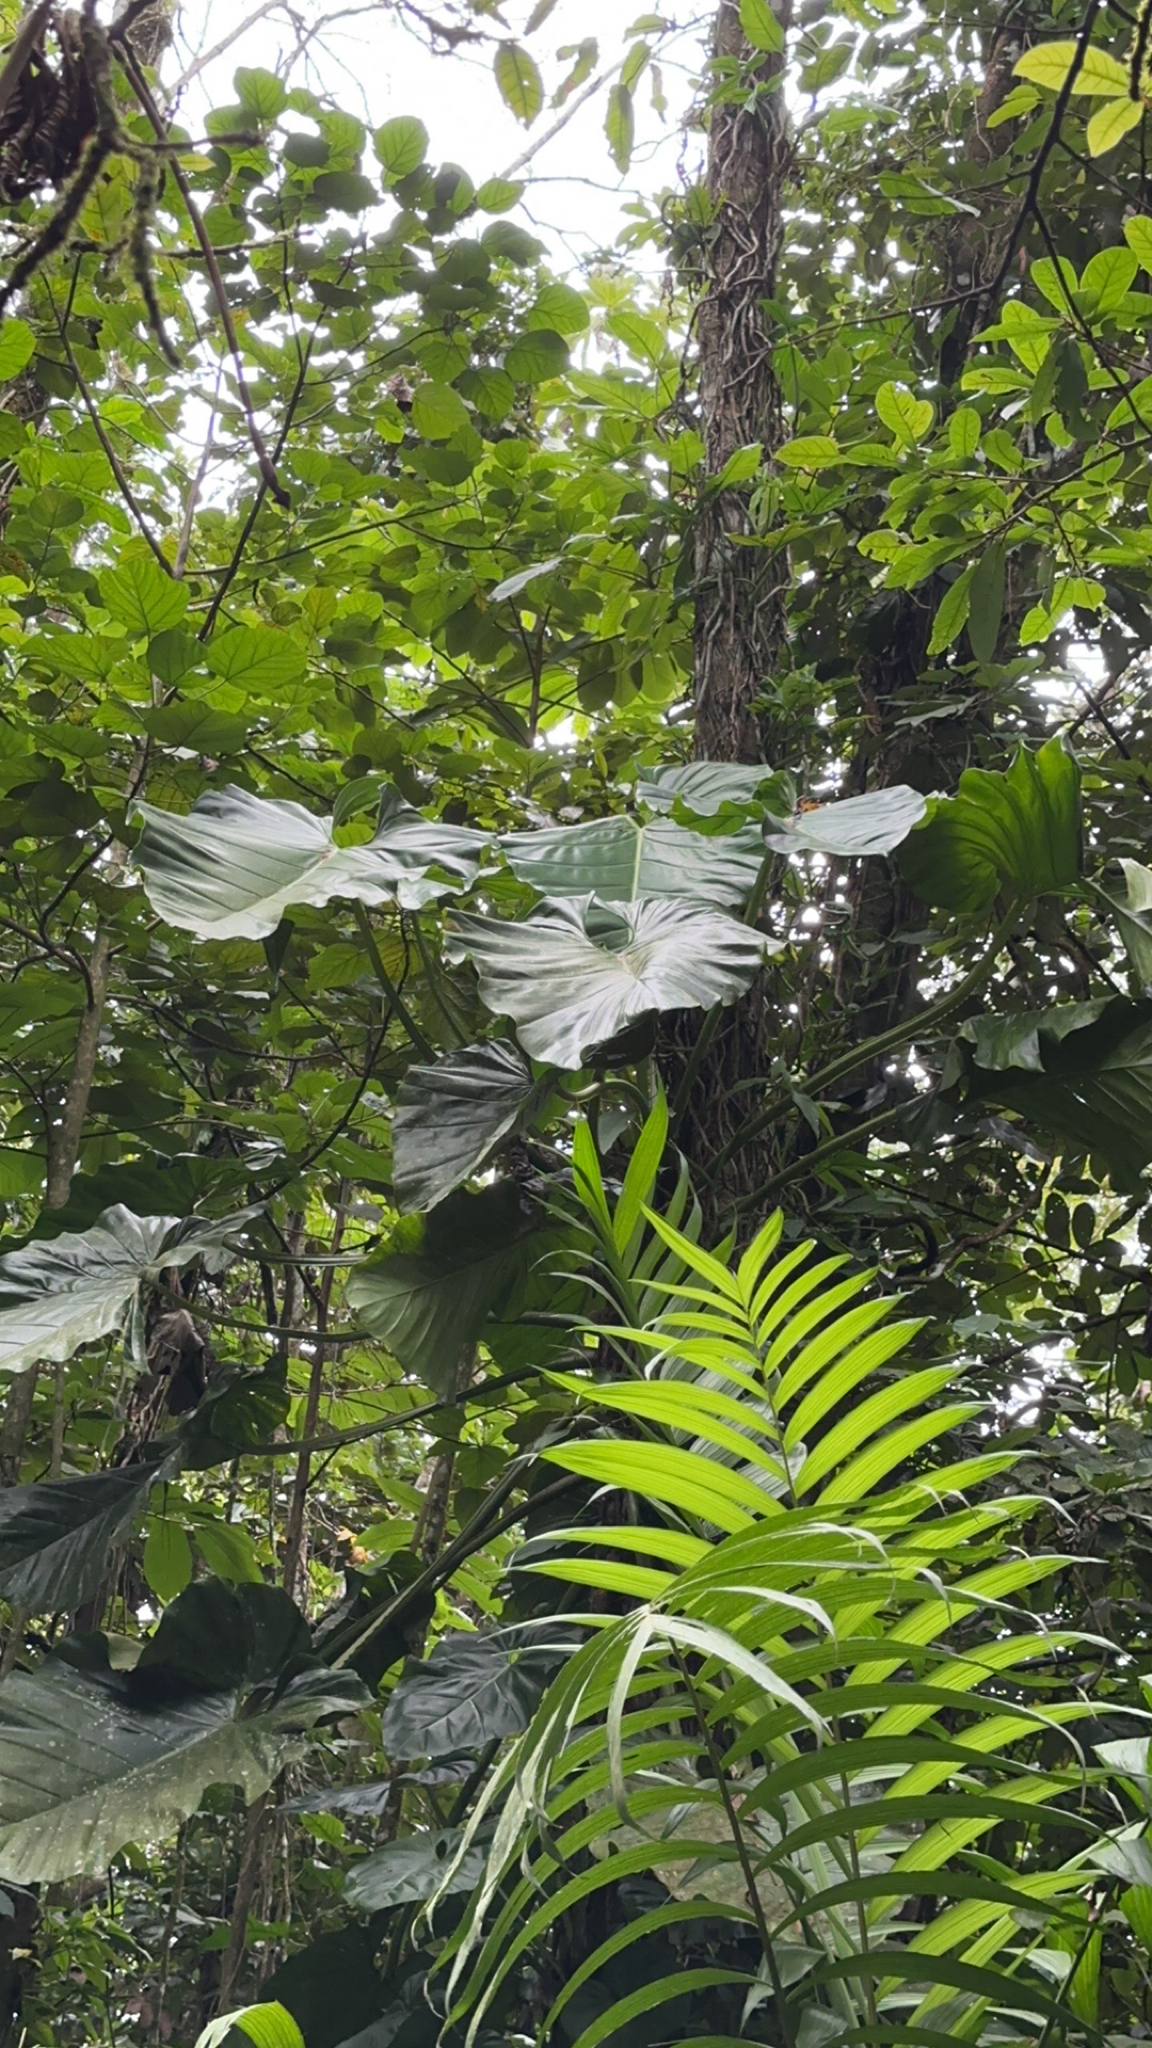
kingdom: Plantae
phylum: Tracheophyta
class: Liliopsida
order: Alismatales
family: Araceae
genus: Philodendron
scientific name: Philodendron pterotum
